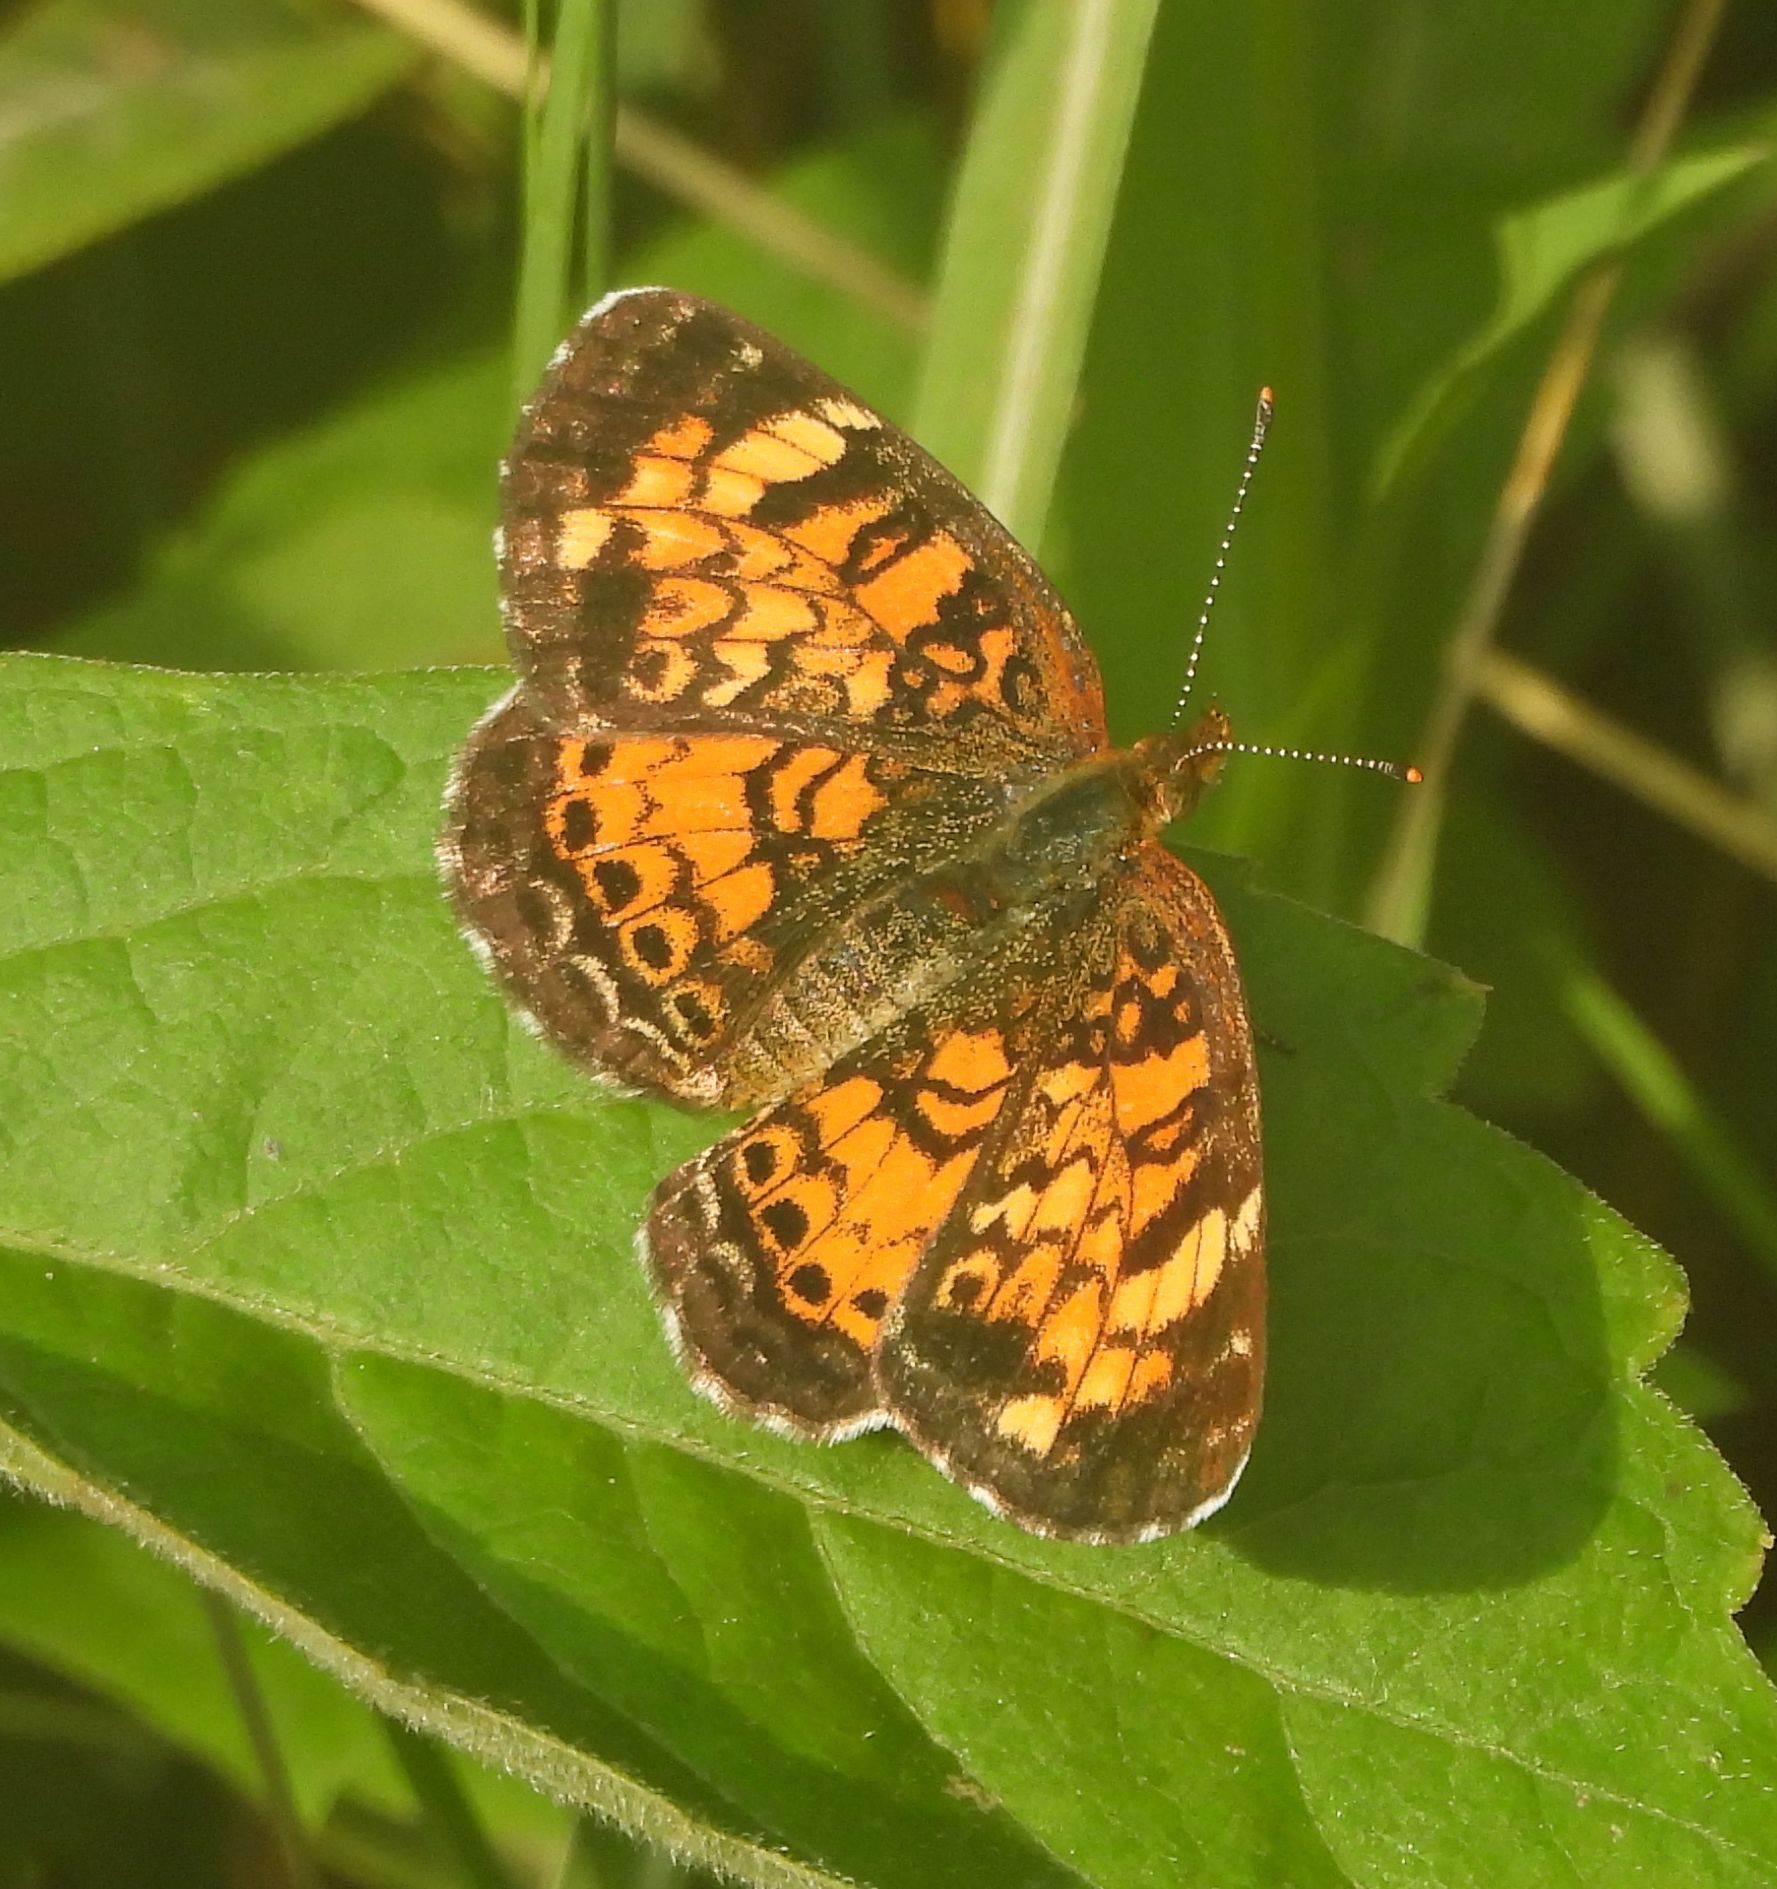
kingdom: Animalia
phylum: Arthropoda
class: Insecta
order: Lepidoptera
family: Nymphalidae
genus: Phyciodes
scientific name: Phyciodes tharos
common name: Pearl crescent
